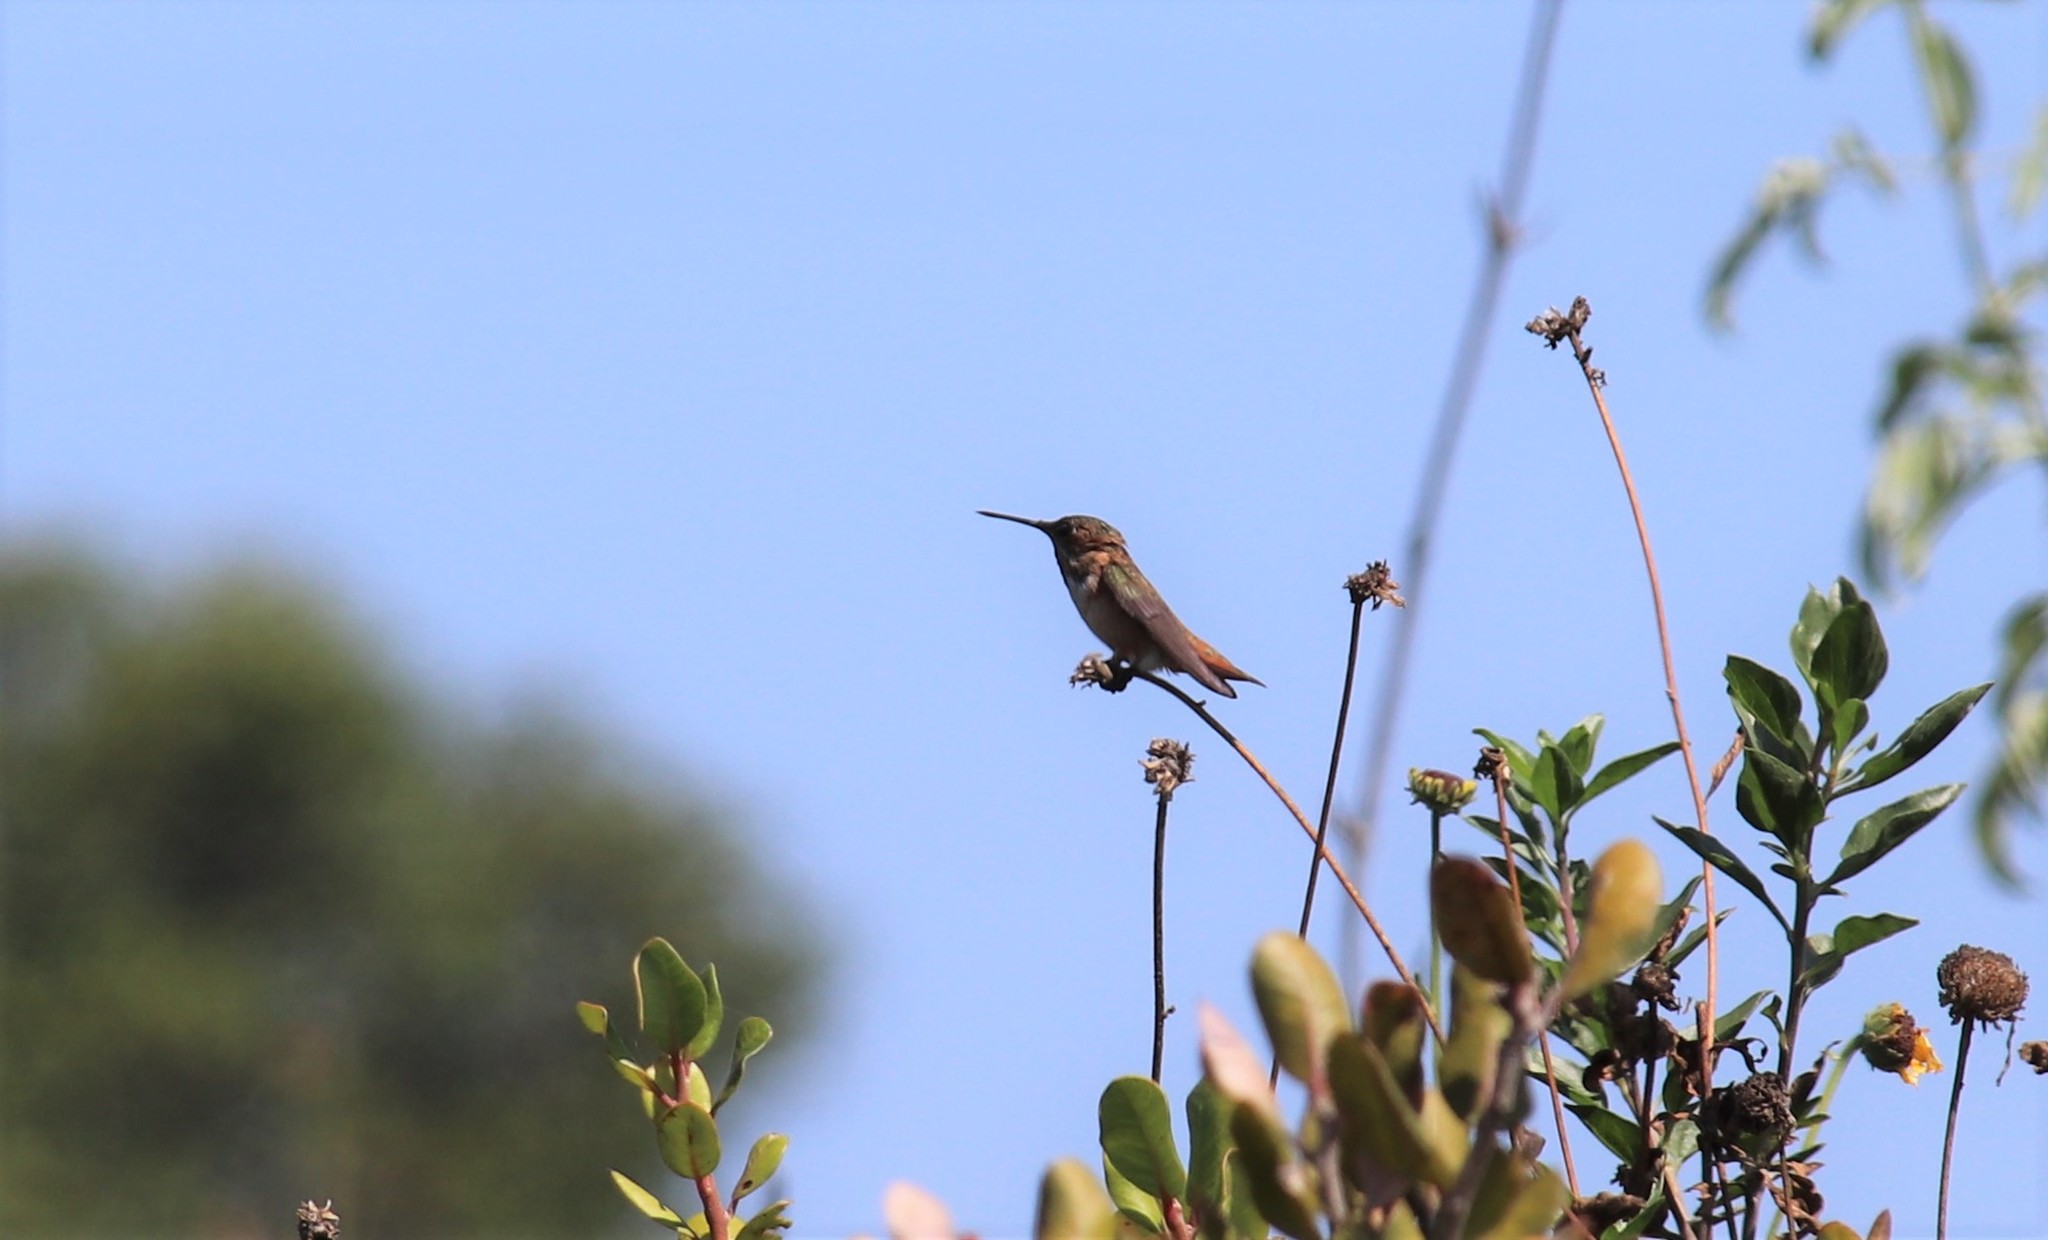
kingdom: Animalia
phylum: Chordata
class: Aves
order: Apodiformes
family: Trochilidae
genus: Selasphorus
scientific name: Selasphorus
